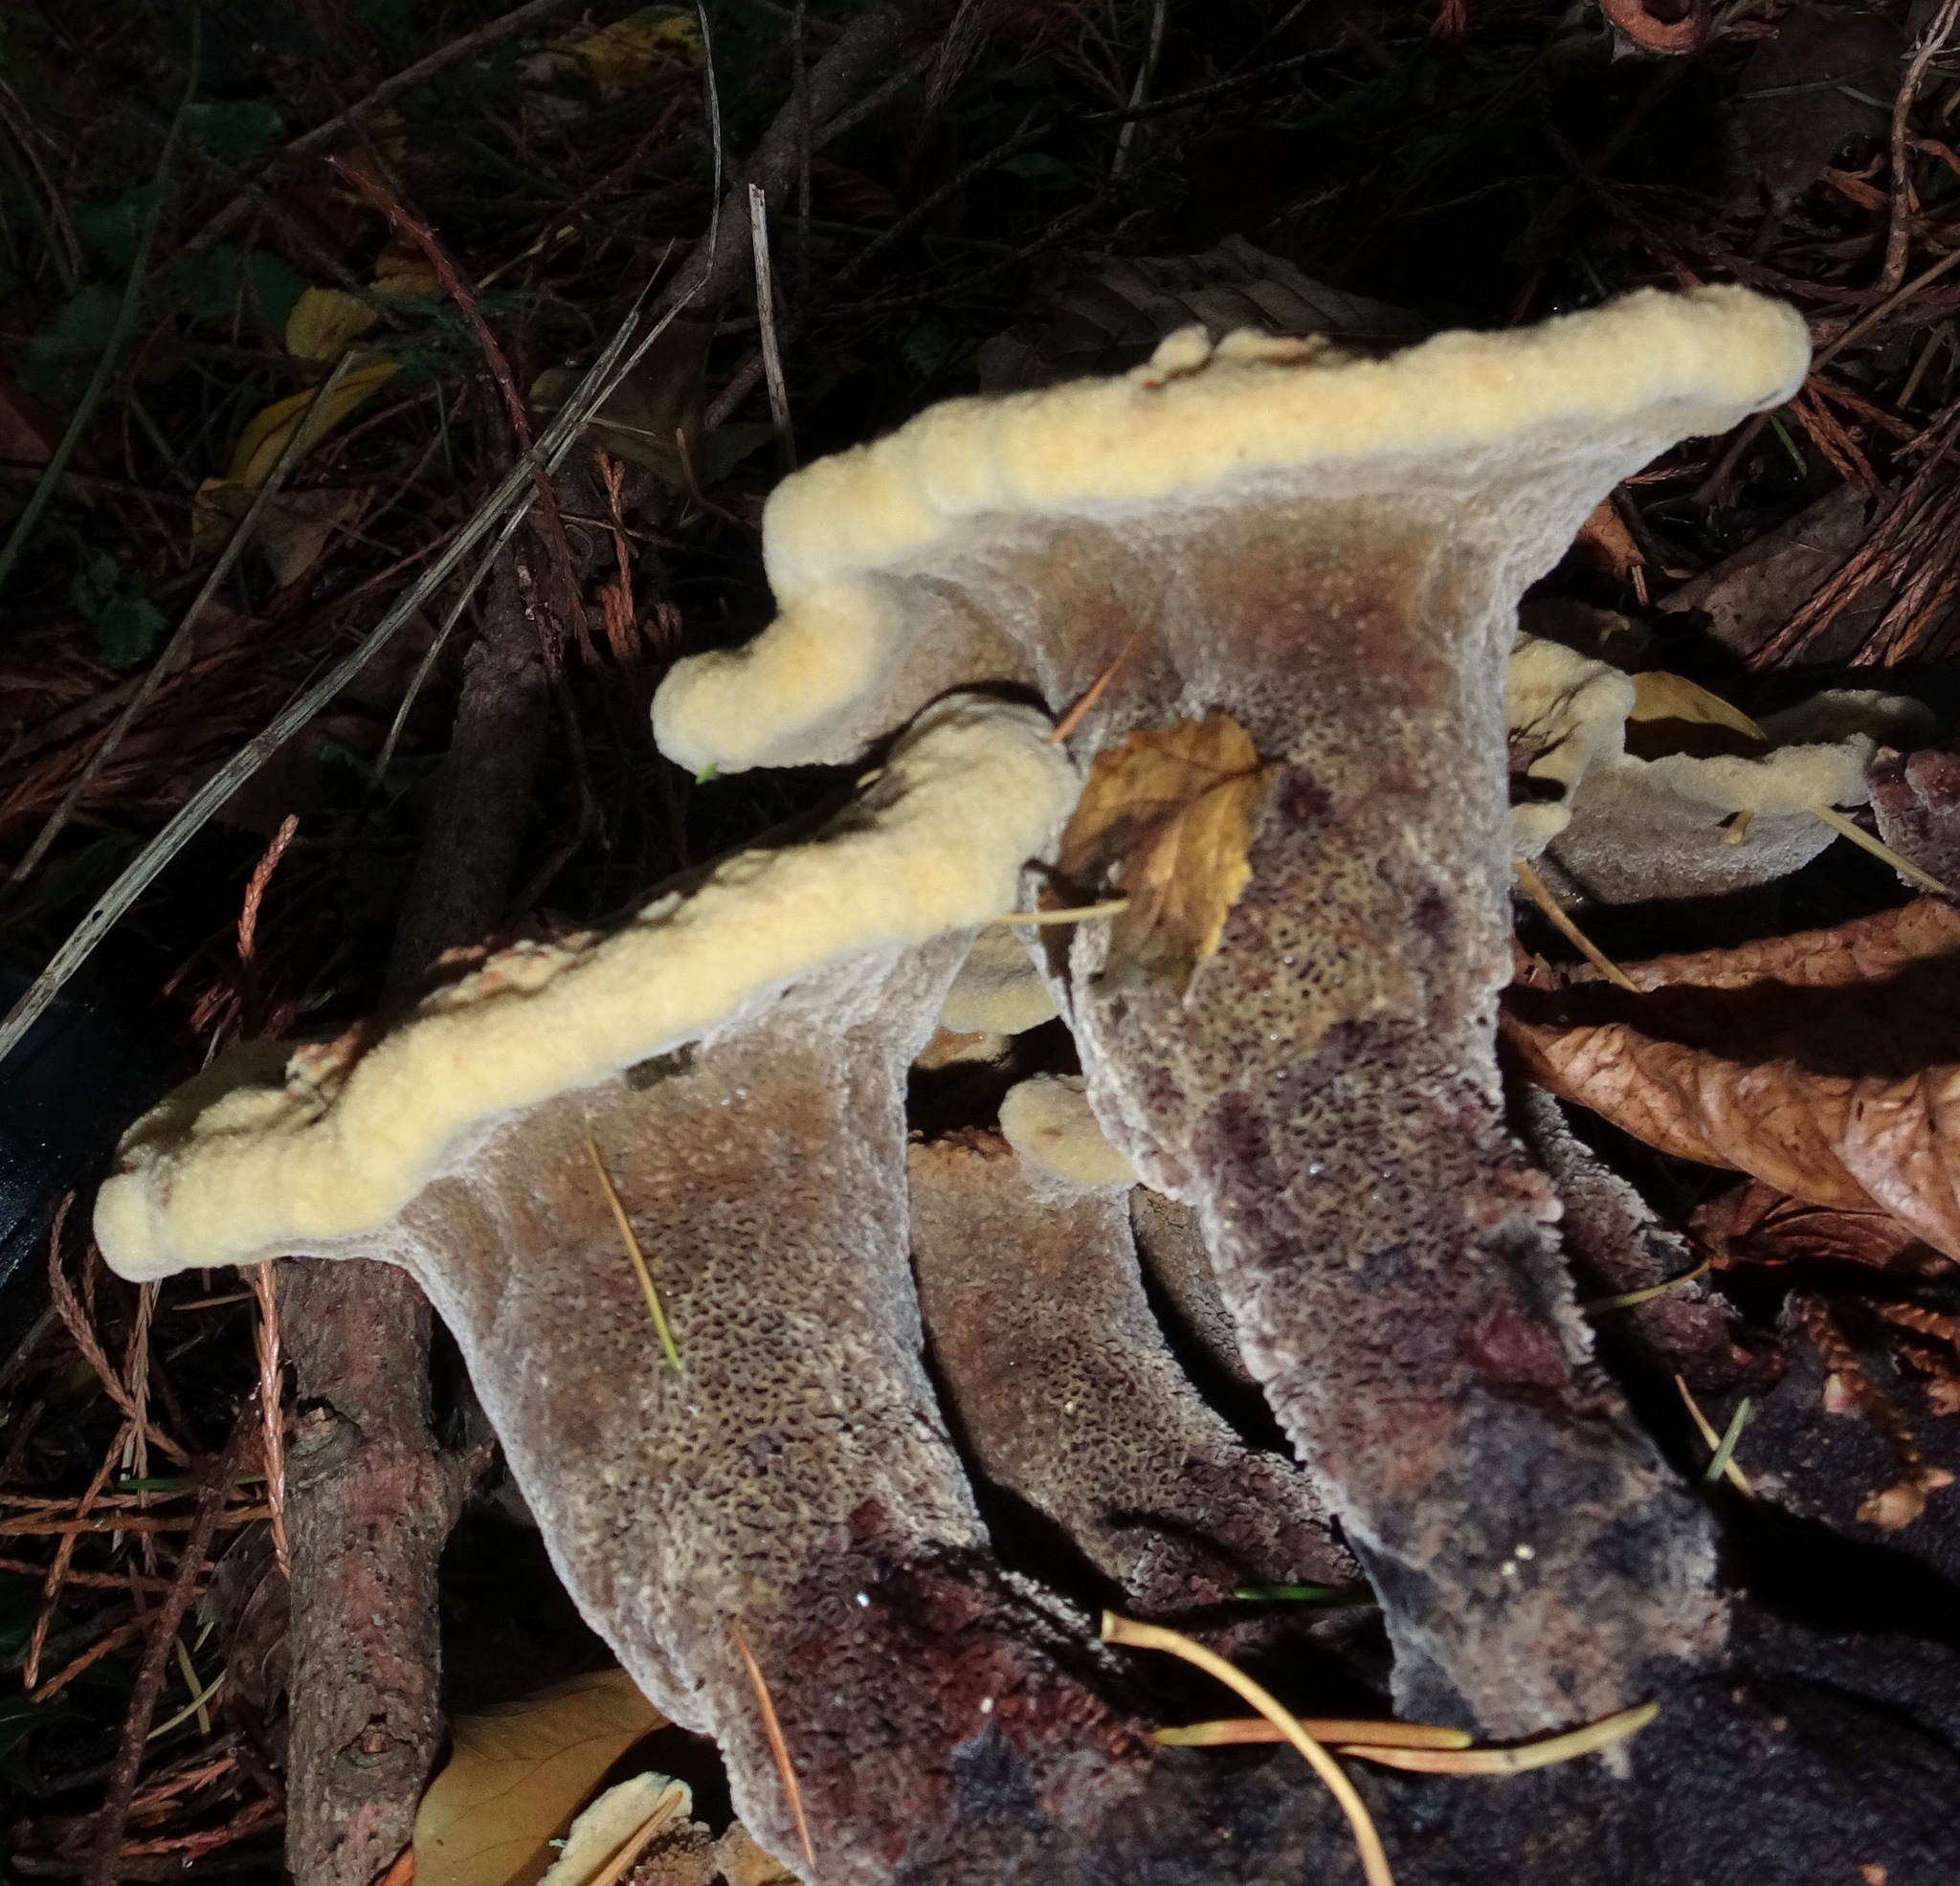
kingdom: Fungi
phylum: Basidiomycota
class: Agaricomycetes
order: Polyporales
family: Laetiporaceae
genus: Phaeolus
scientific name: Phaeolus schweinitzii
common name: Dyer's mazegill
